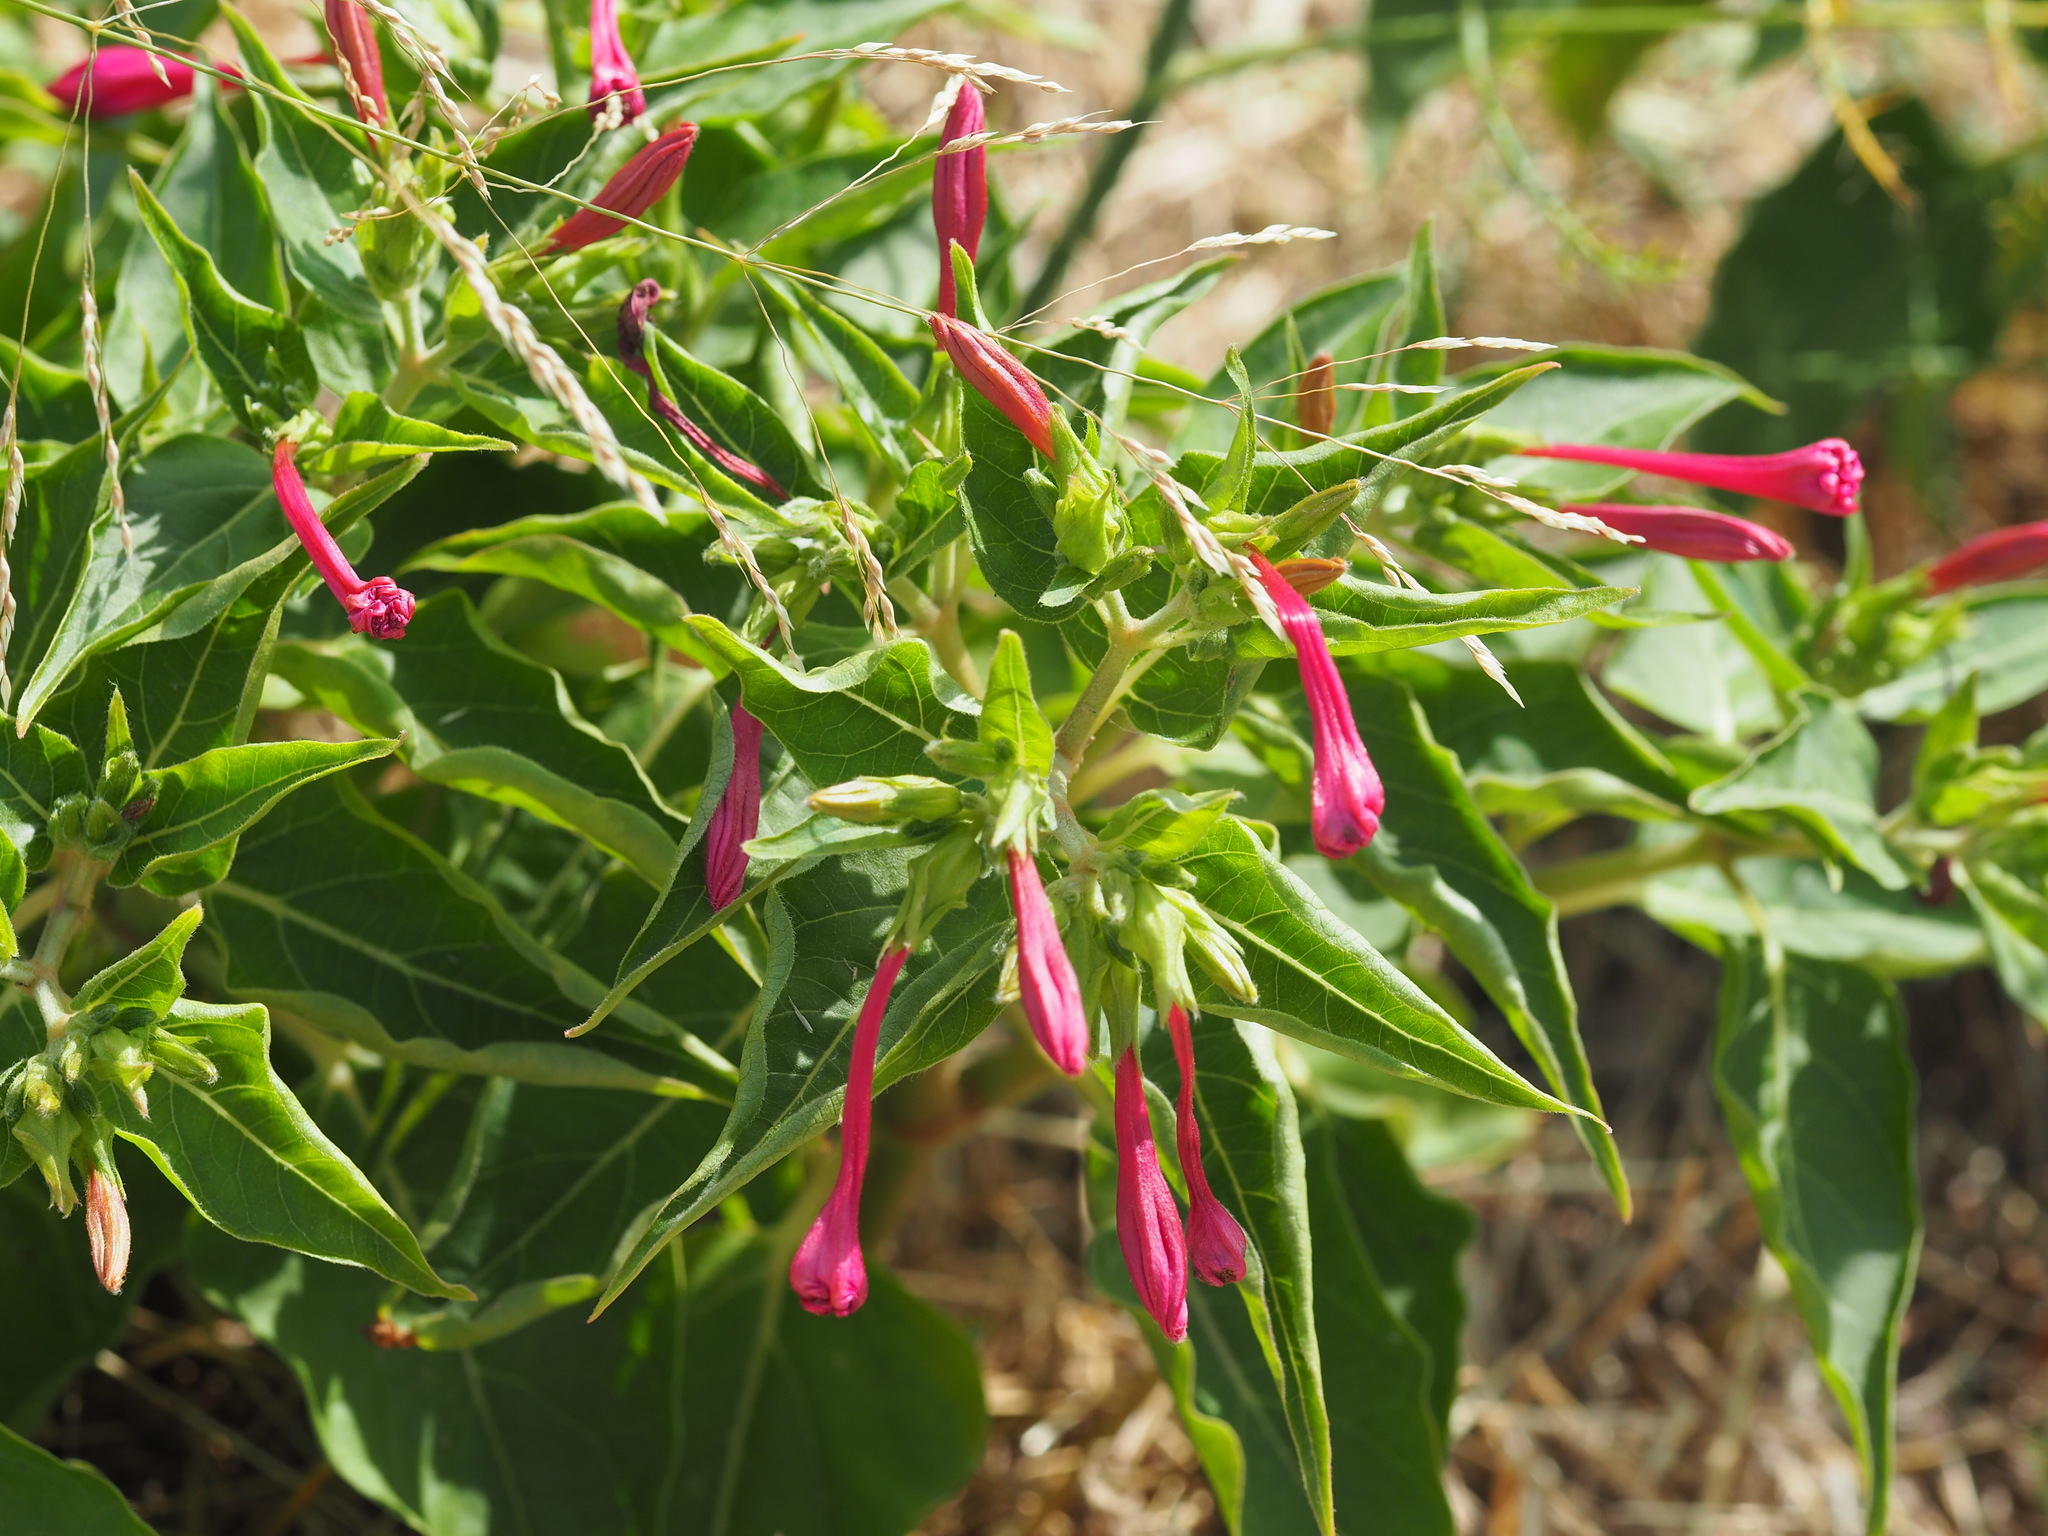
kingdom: Plantae
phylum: Tracheophyta
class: Magnoliopsida
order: Caryophyllales
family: Nyctaginaceae
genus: Mirabilis
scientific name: Mirabilis jalapa
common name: Marvel-of-peru
